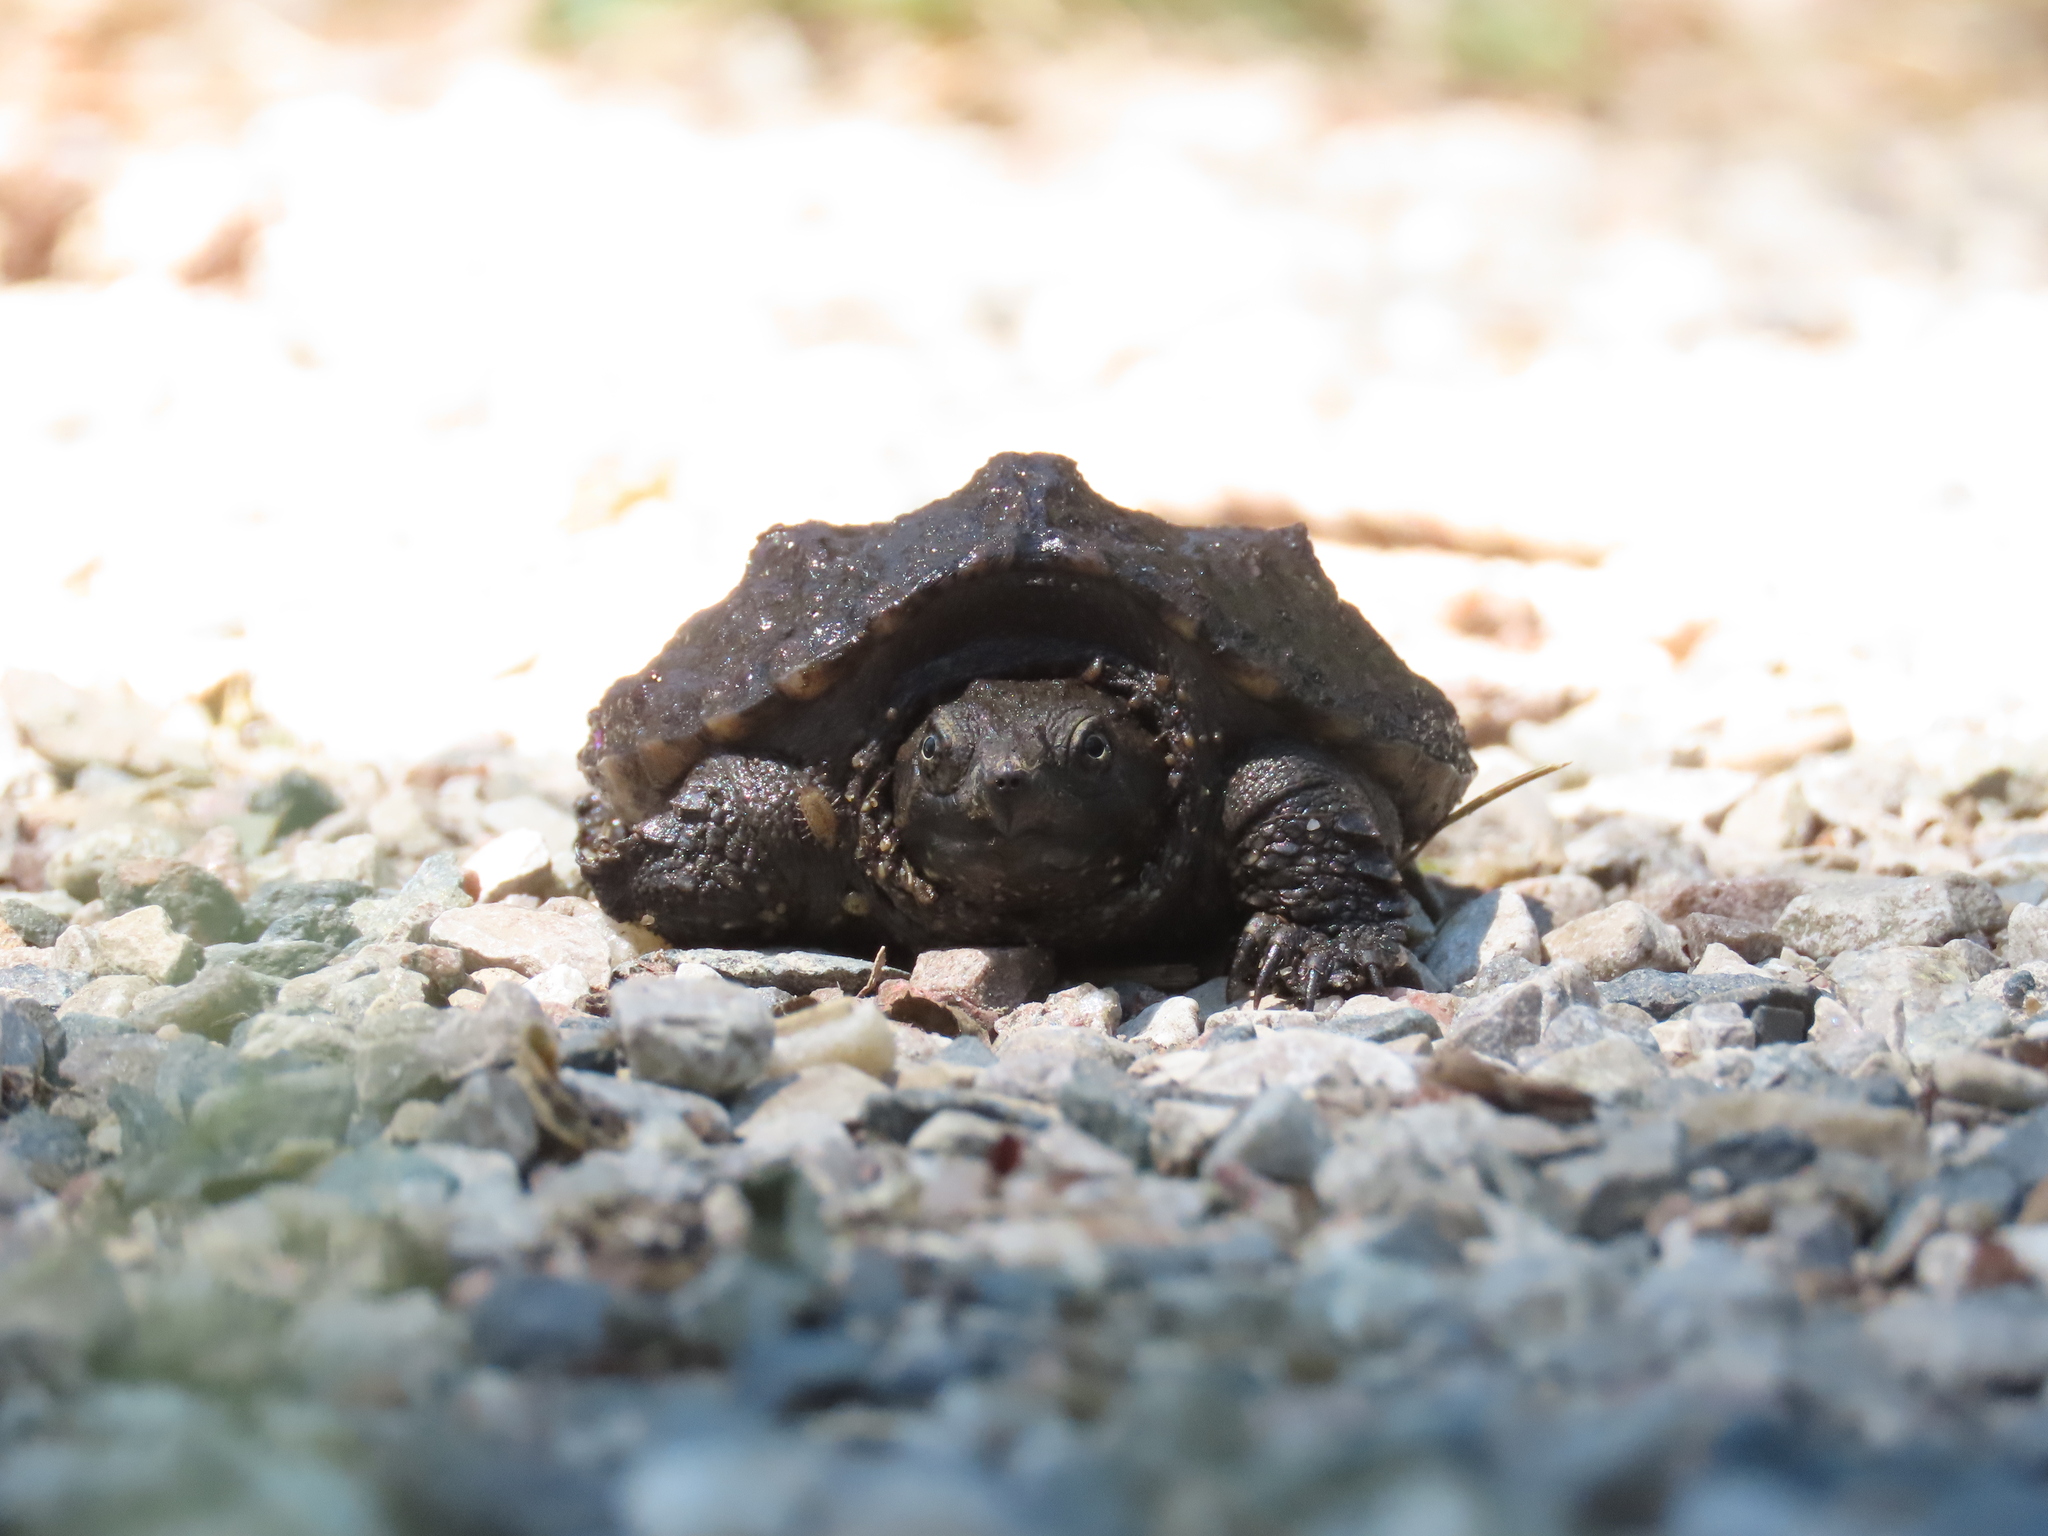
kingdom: Animalia
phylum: Chordata
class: Testudines
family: Chelydridae
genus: Chelydra
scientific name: Chelydra serpentina
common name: Common snapping turtle
